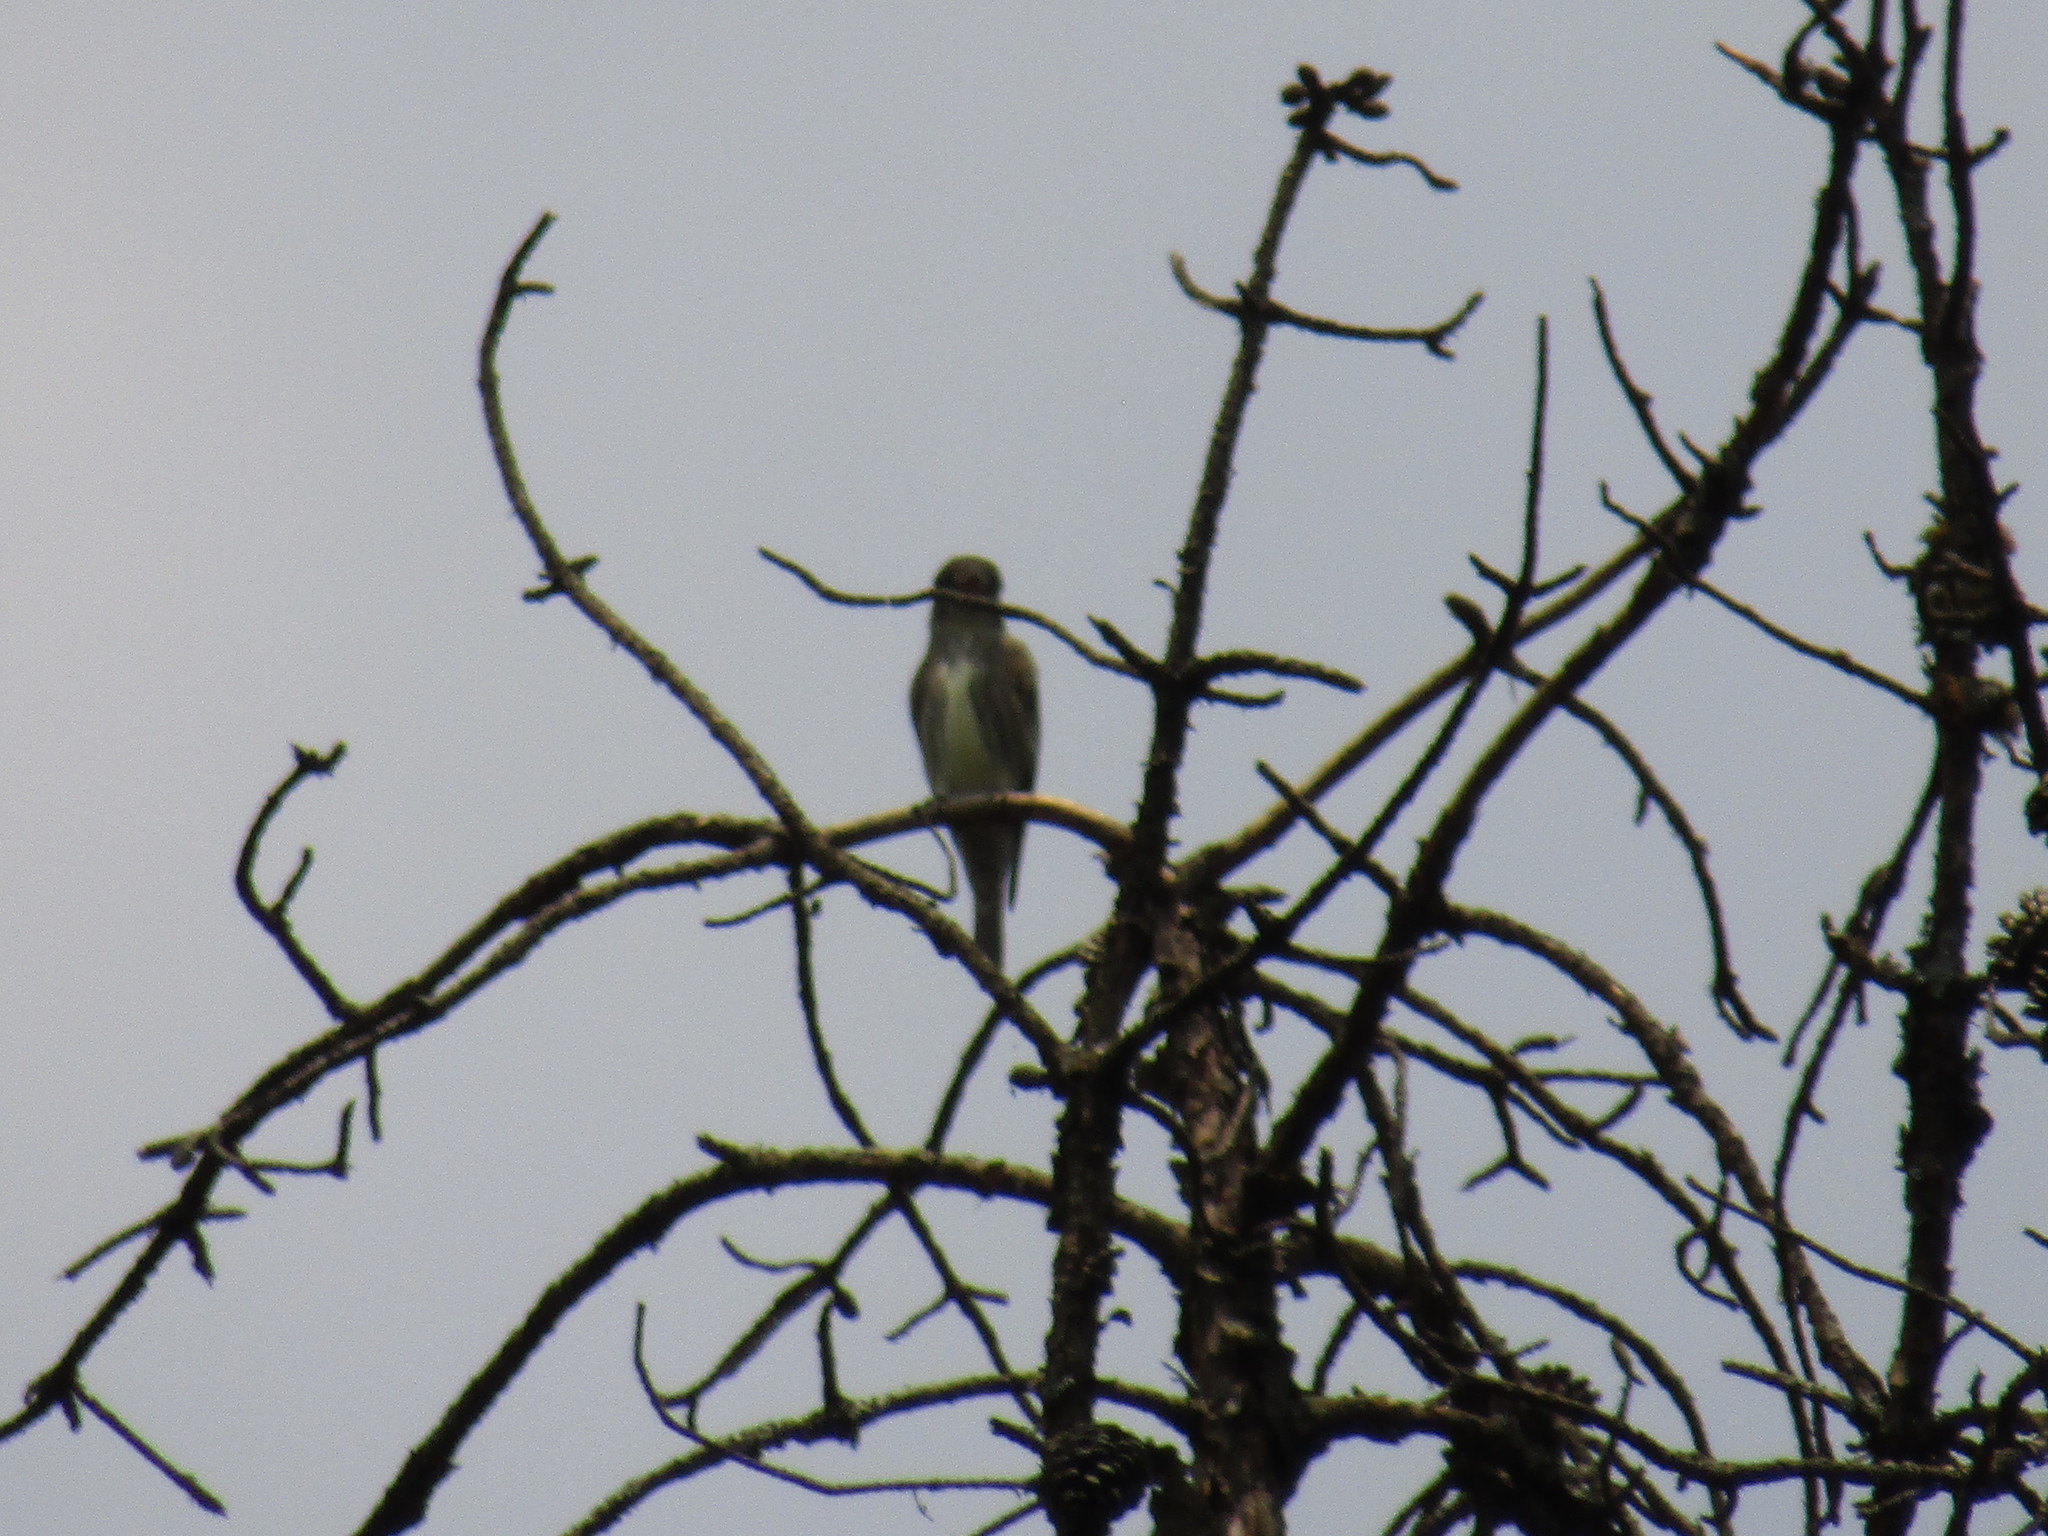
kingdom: Animalia
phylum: Chordata
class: Aves
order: Passeriformes
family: Tyrannidae
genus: Contopus
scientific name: Contopus cooperi
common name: Olive-sided flycatcher
